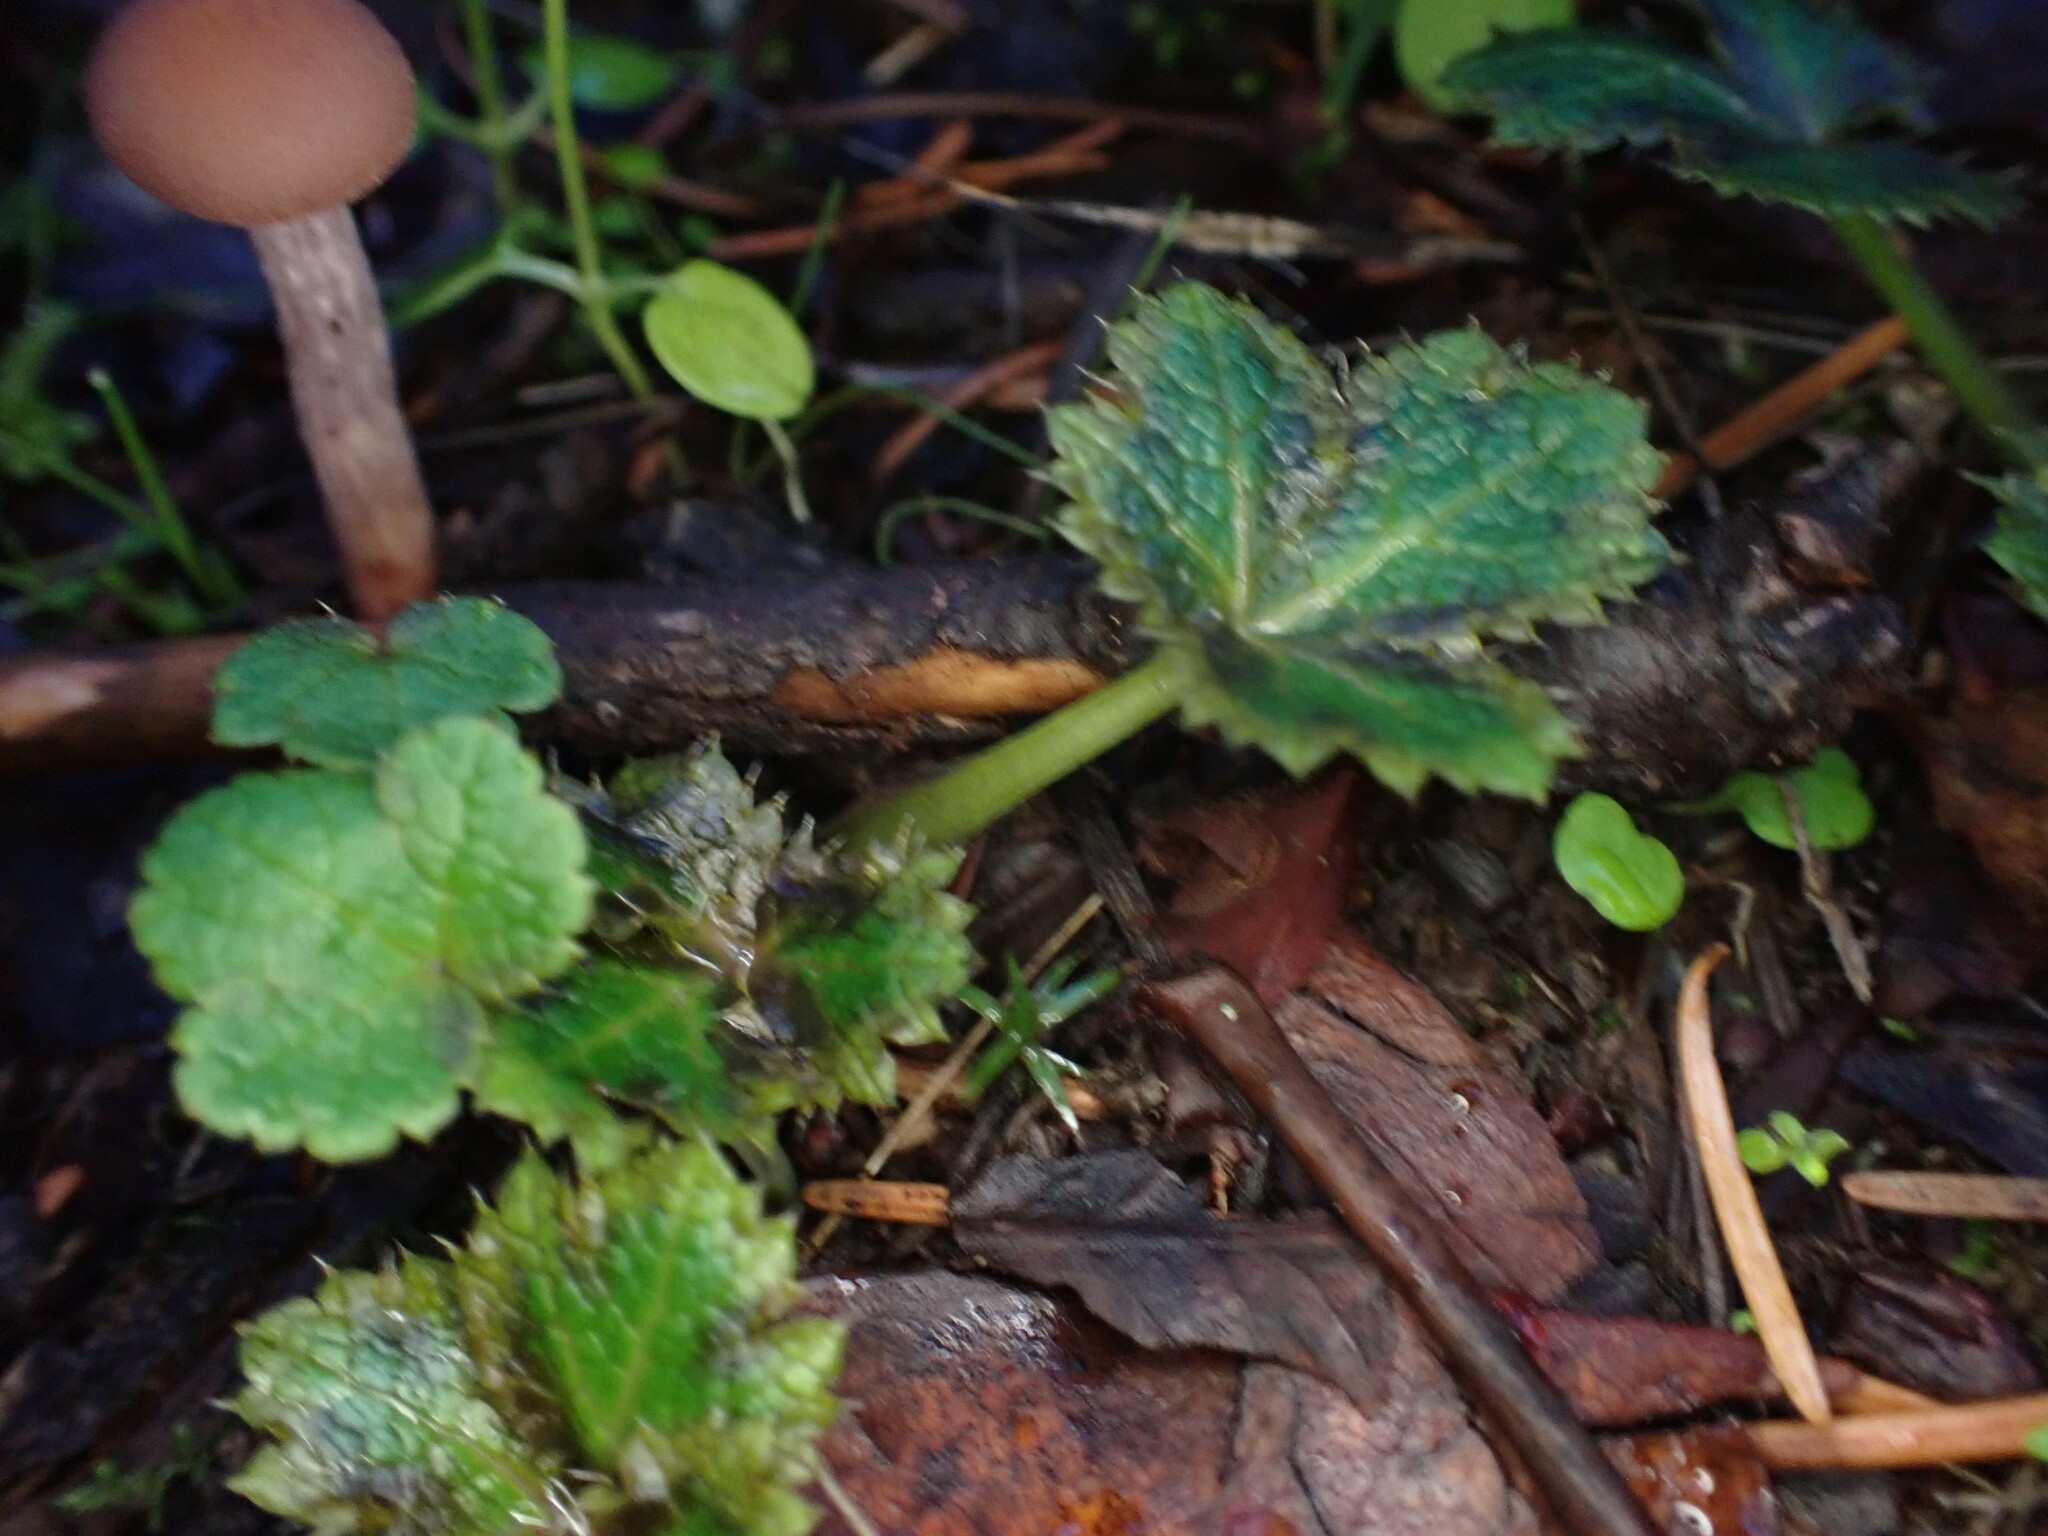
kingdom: Plantae
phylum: Tracheophyta
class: Magnoliopsida
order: Apiales
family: Apiaceae
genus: Sanicula
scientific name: Sanicula crassicaulis
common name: Western snakeroot
